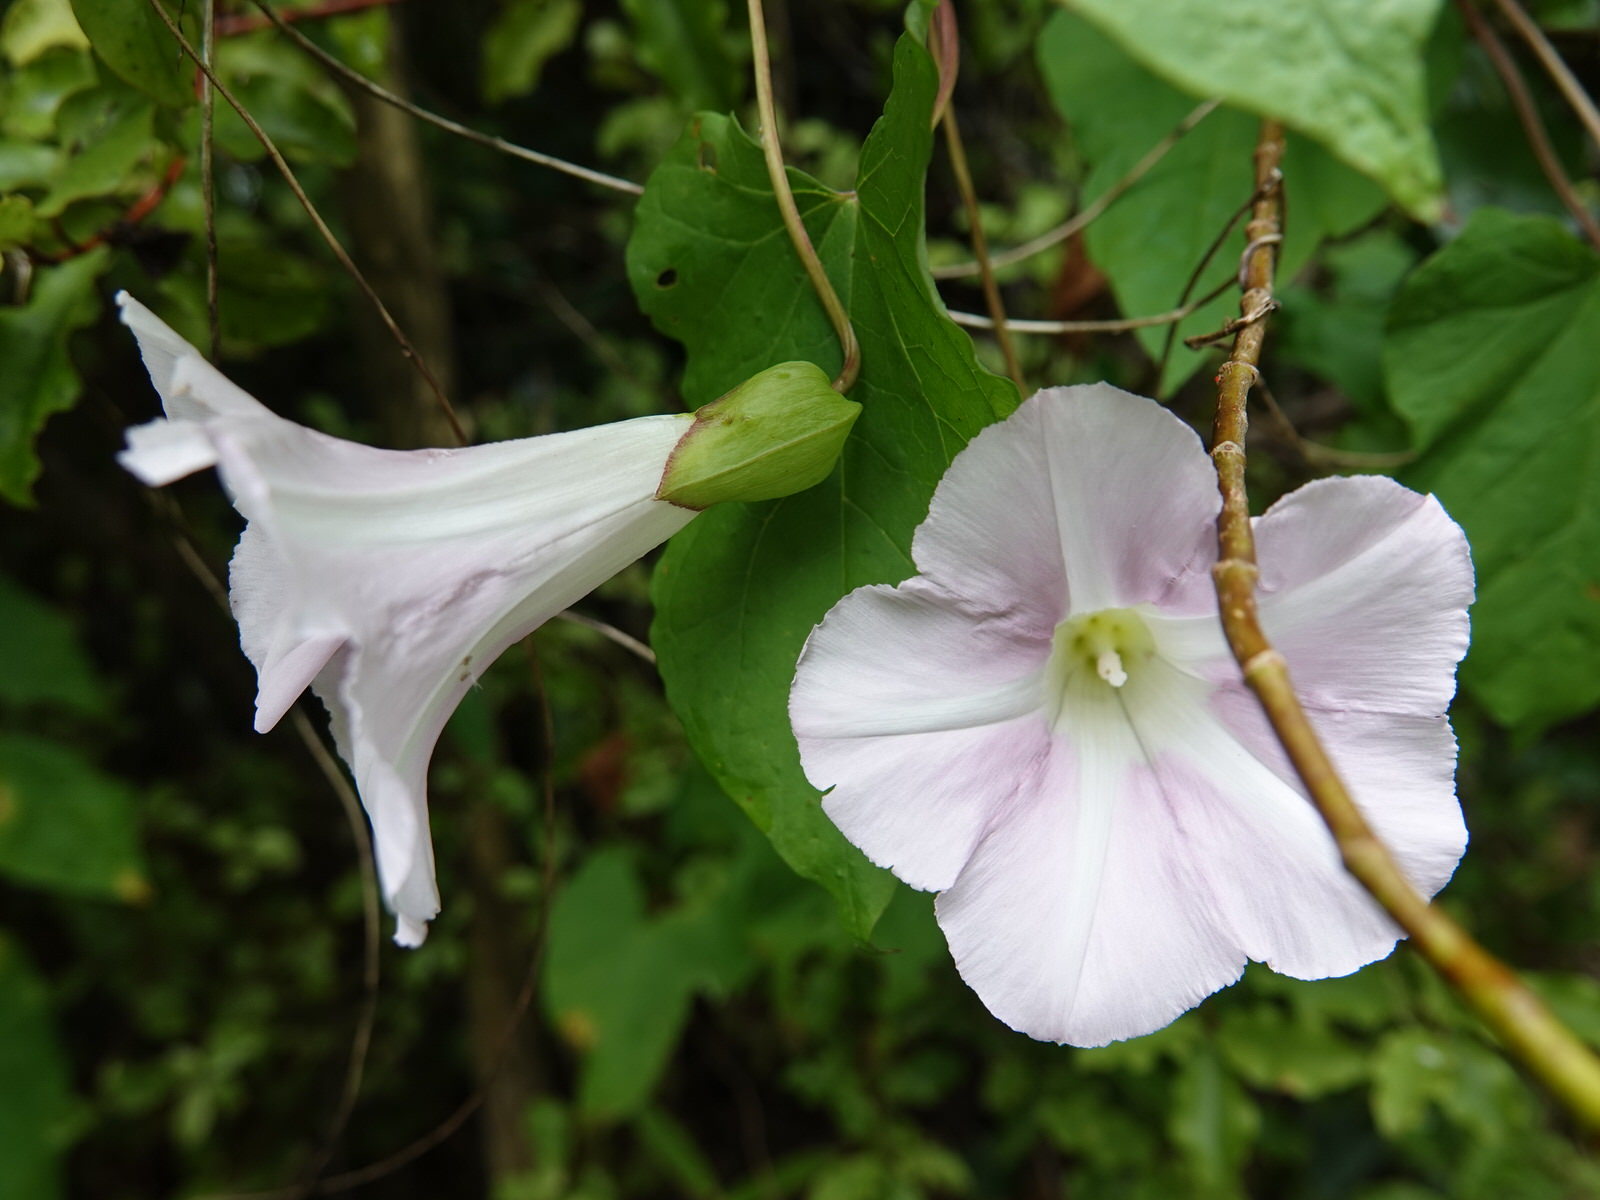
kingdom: Plantae
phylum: Tracheophyta
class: Magnoliopsida
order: Solanales
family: Convolvulaceae
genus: Calystegia
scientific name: Calystegia sepium
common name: Hedge bindweed
